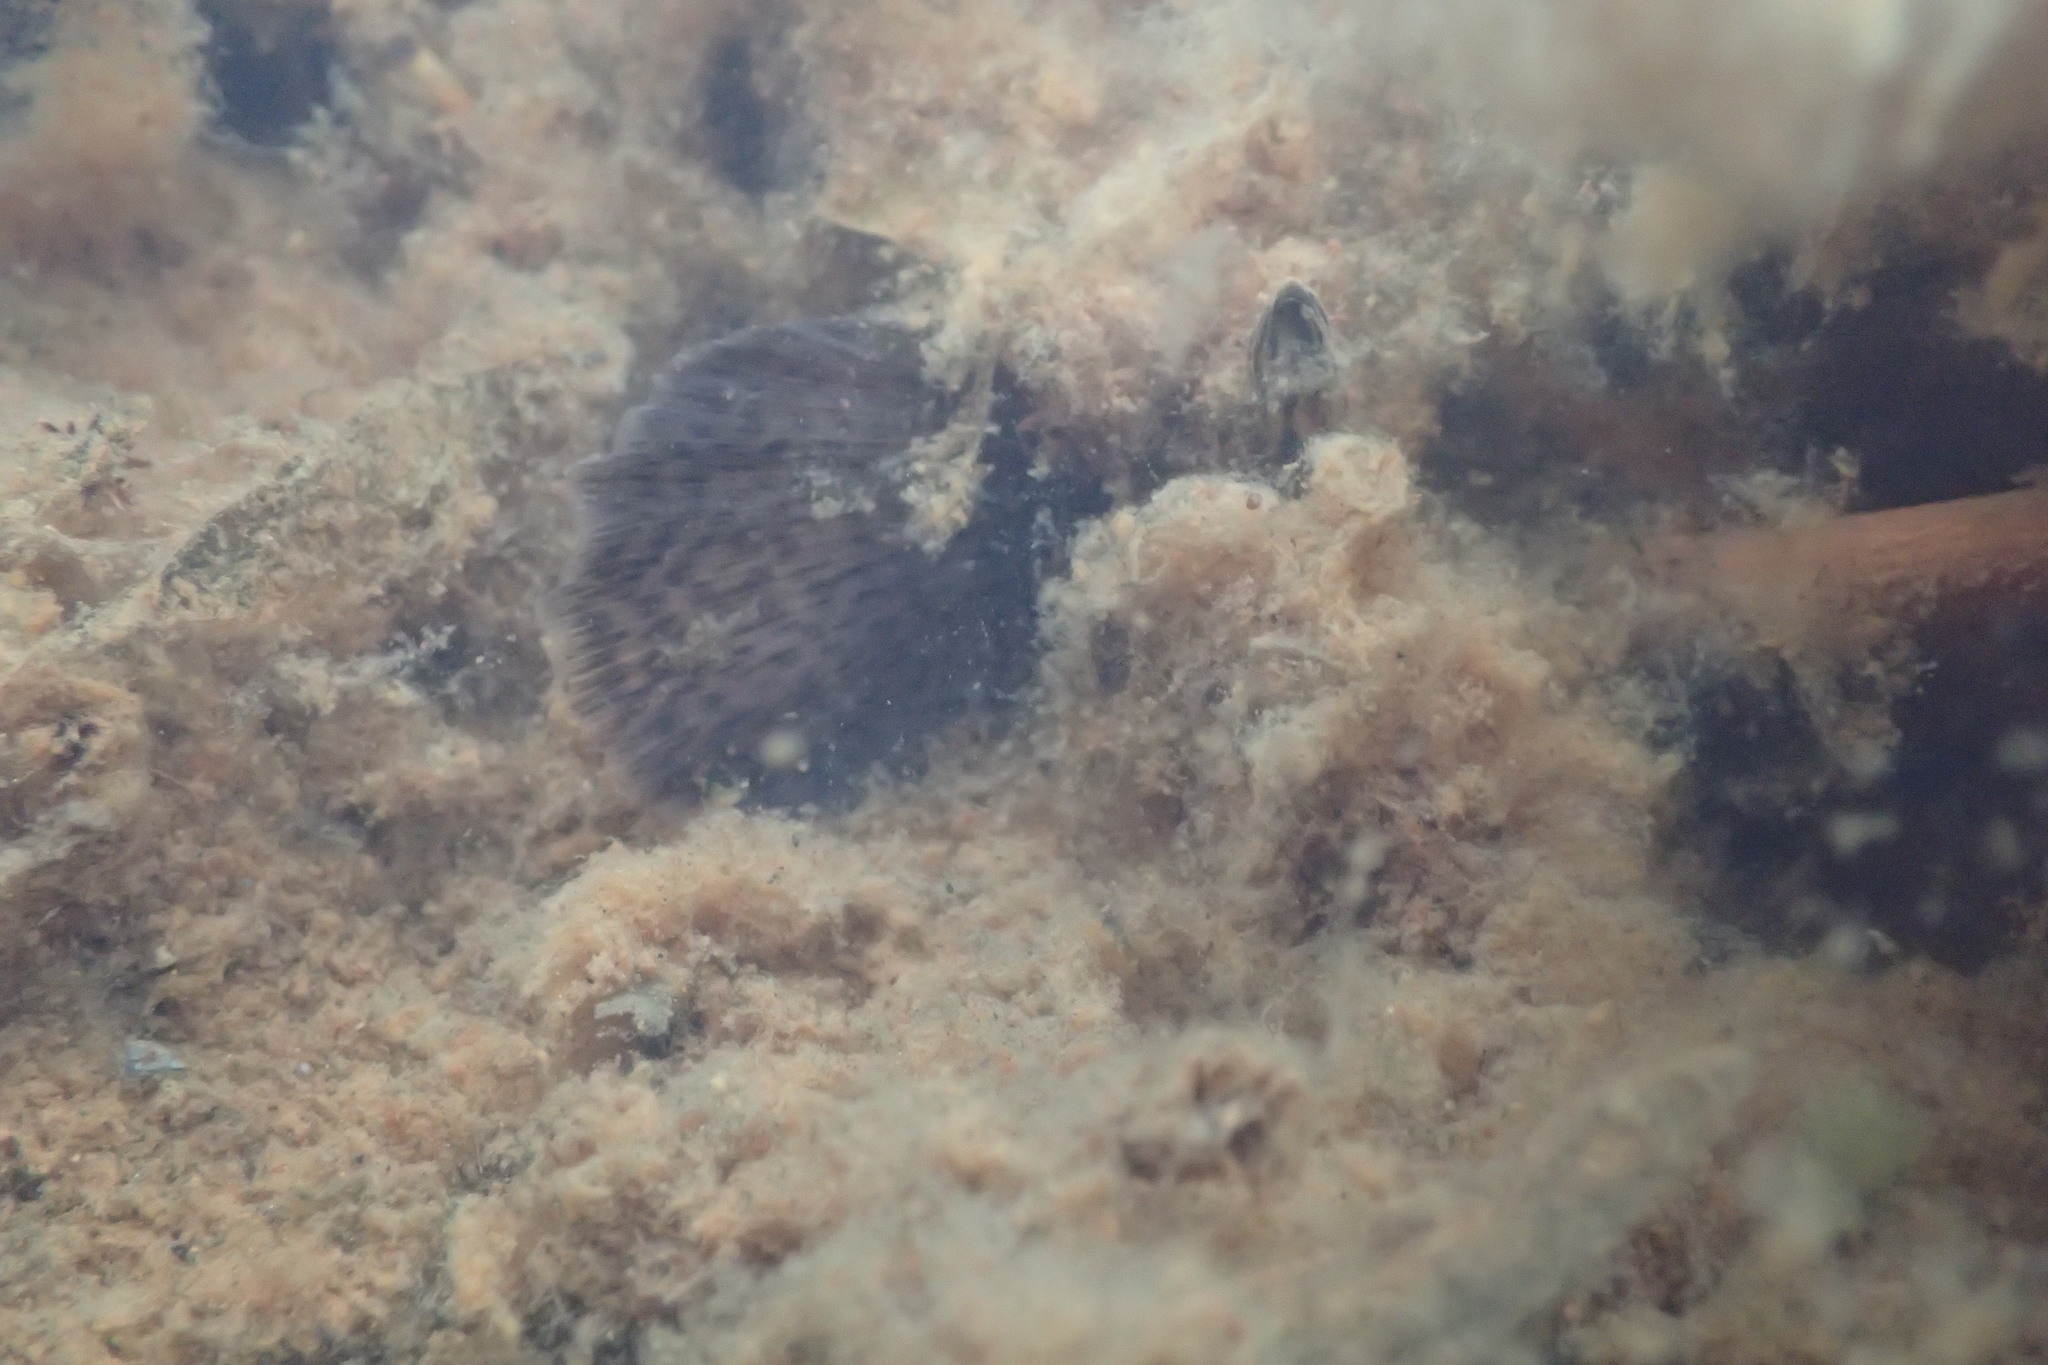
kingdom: Animalia
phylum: Chordata
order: Esociformes
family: Umbridae
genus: Dallia
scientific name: Dallia pectoralis
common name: Alaska blackfish
